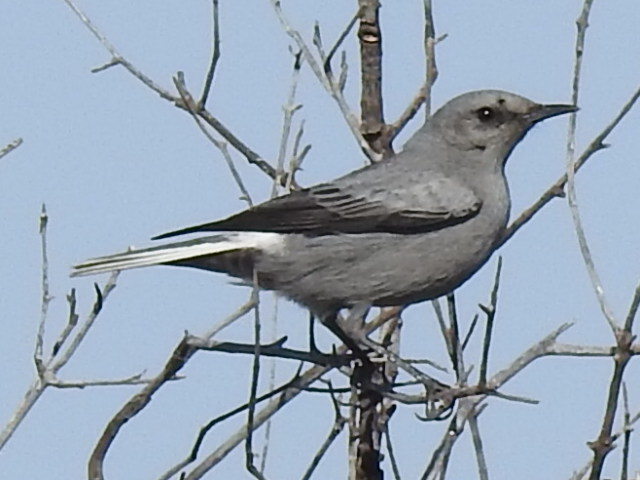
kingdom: Animalia
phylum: Chordata
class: Aves
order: Passeriformes
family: Muscicapidae
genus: Oenanthe
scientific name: Oenanthe monticola
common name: Mountain wheatear
